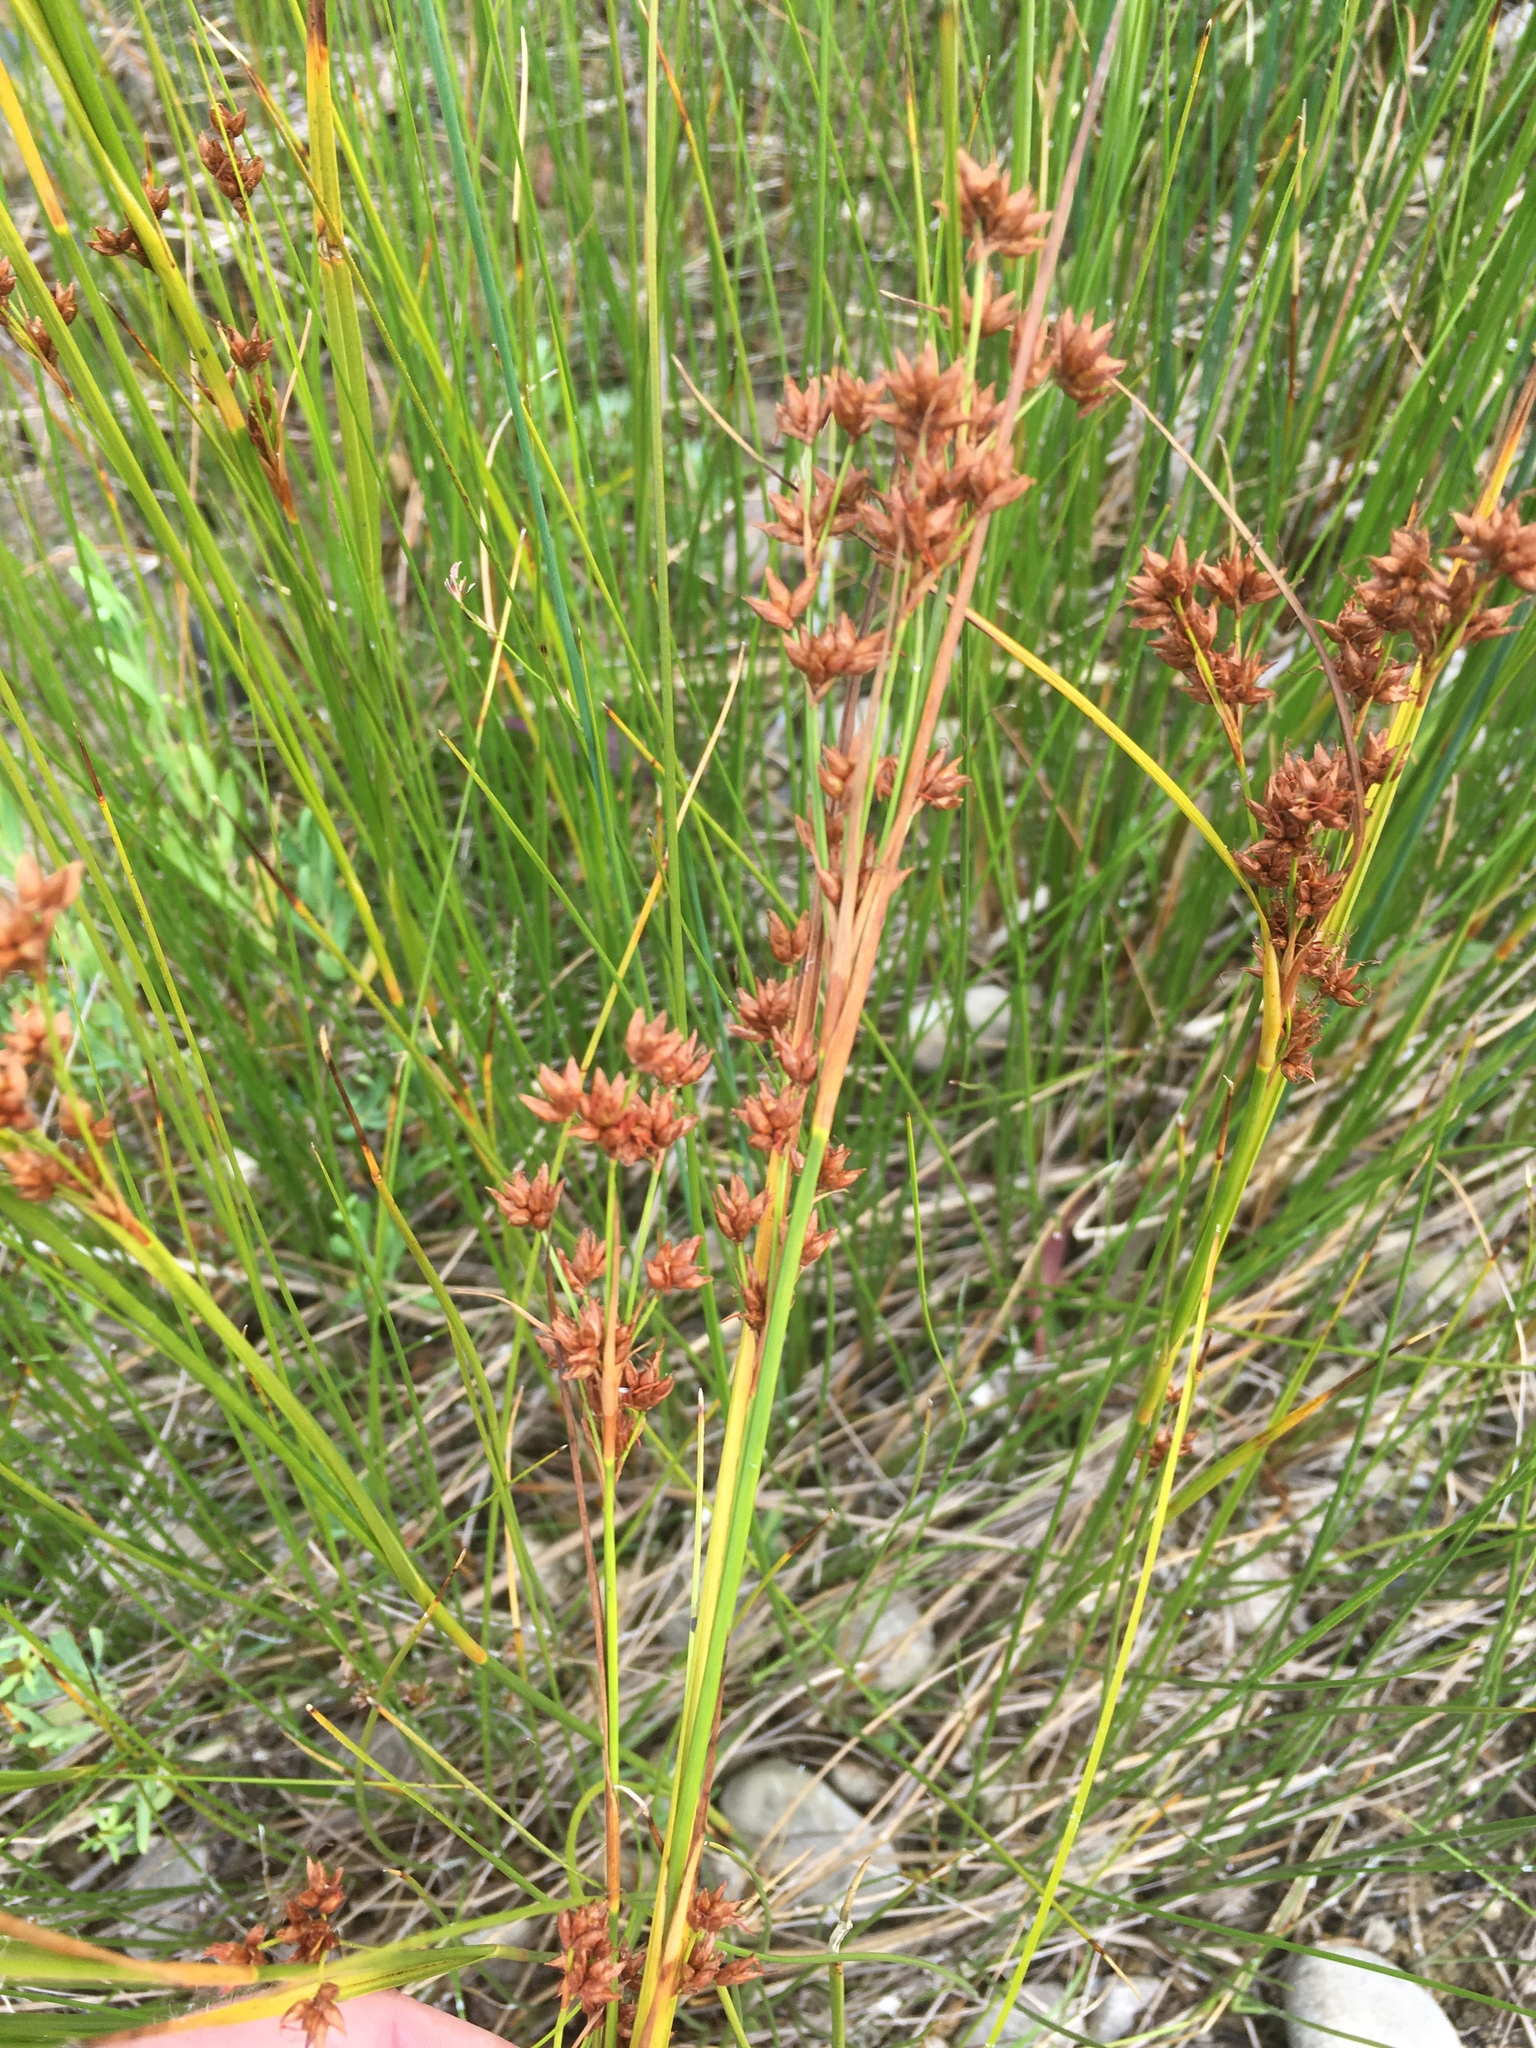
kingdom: Plantae
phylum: Tracheophyta
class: Liliopsida
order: Poales
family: Cyperaceae
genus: Cladium
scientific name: Cladium mariscoides
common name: Smooth sawgrass
